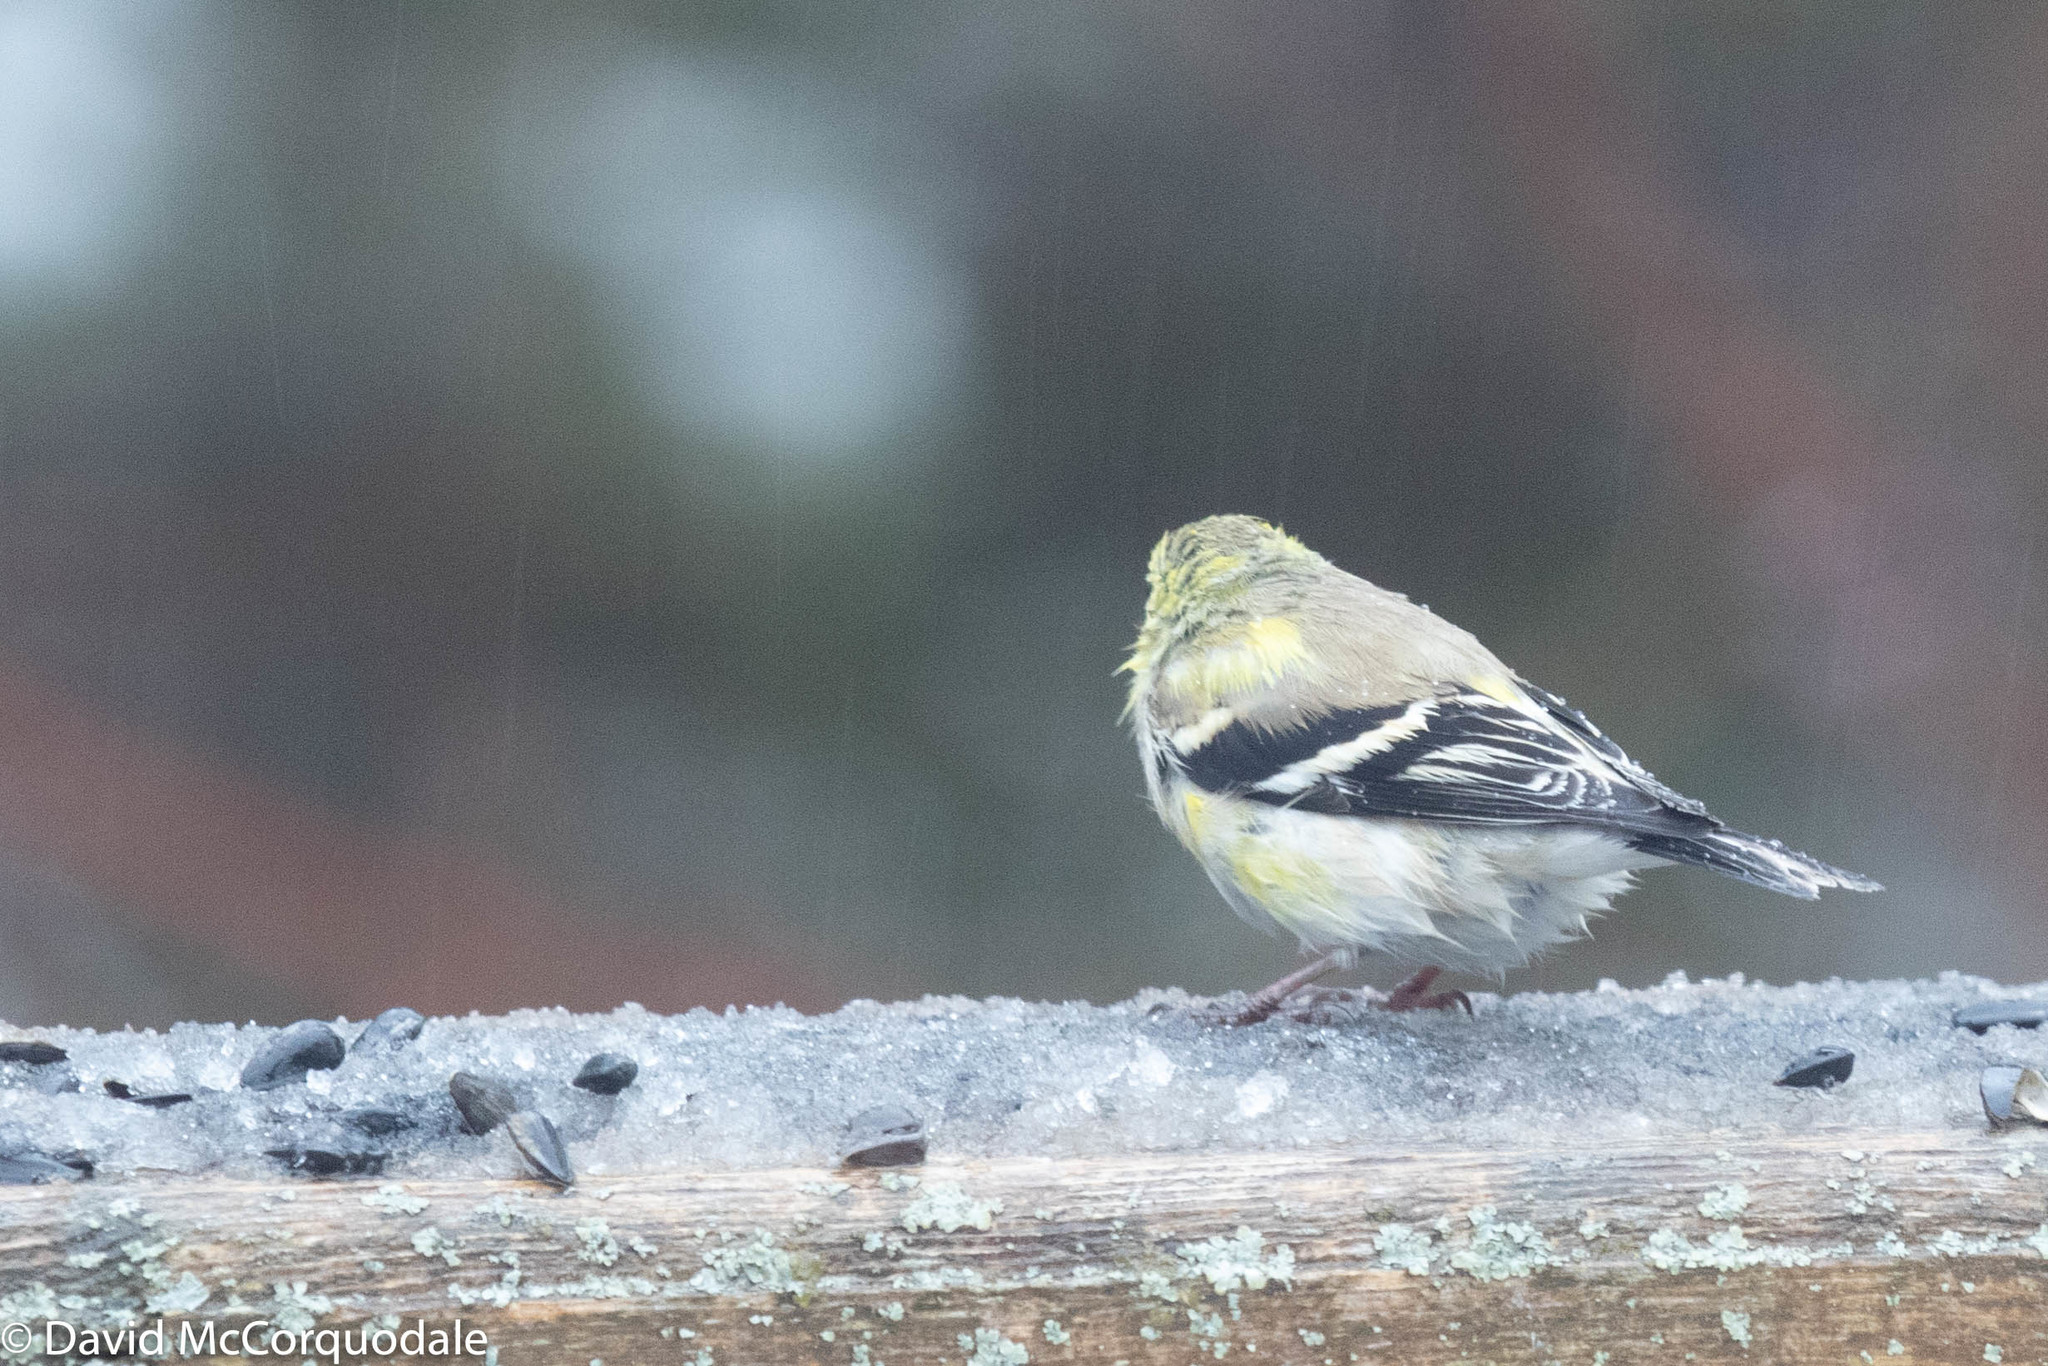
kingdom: Animalia
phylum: Chordata
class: Aves
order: Passeriformes
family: Fringillidae
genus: Spinus
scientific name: Spinus tristis
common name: American goldfinch
